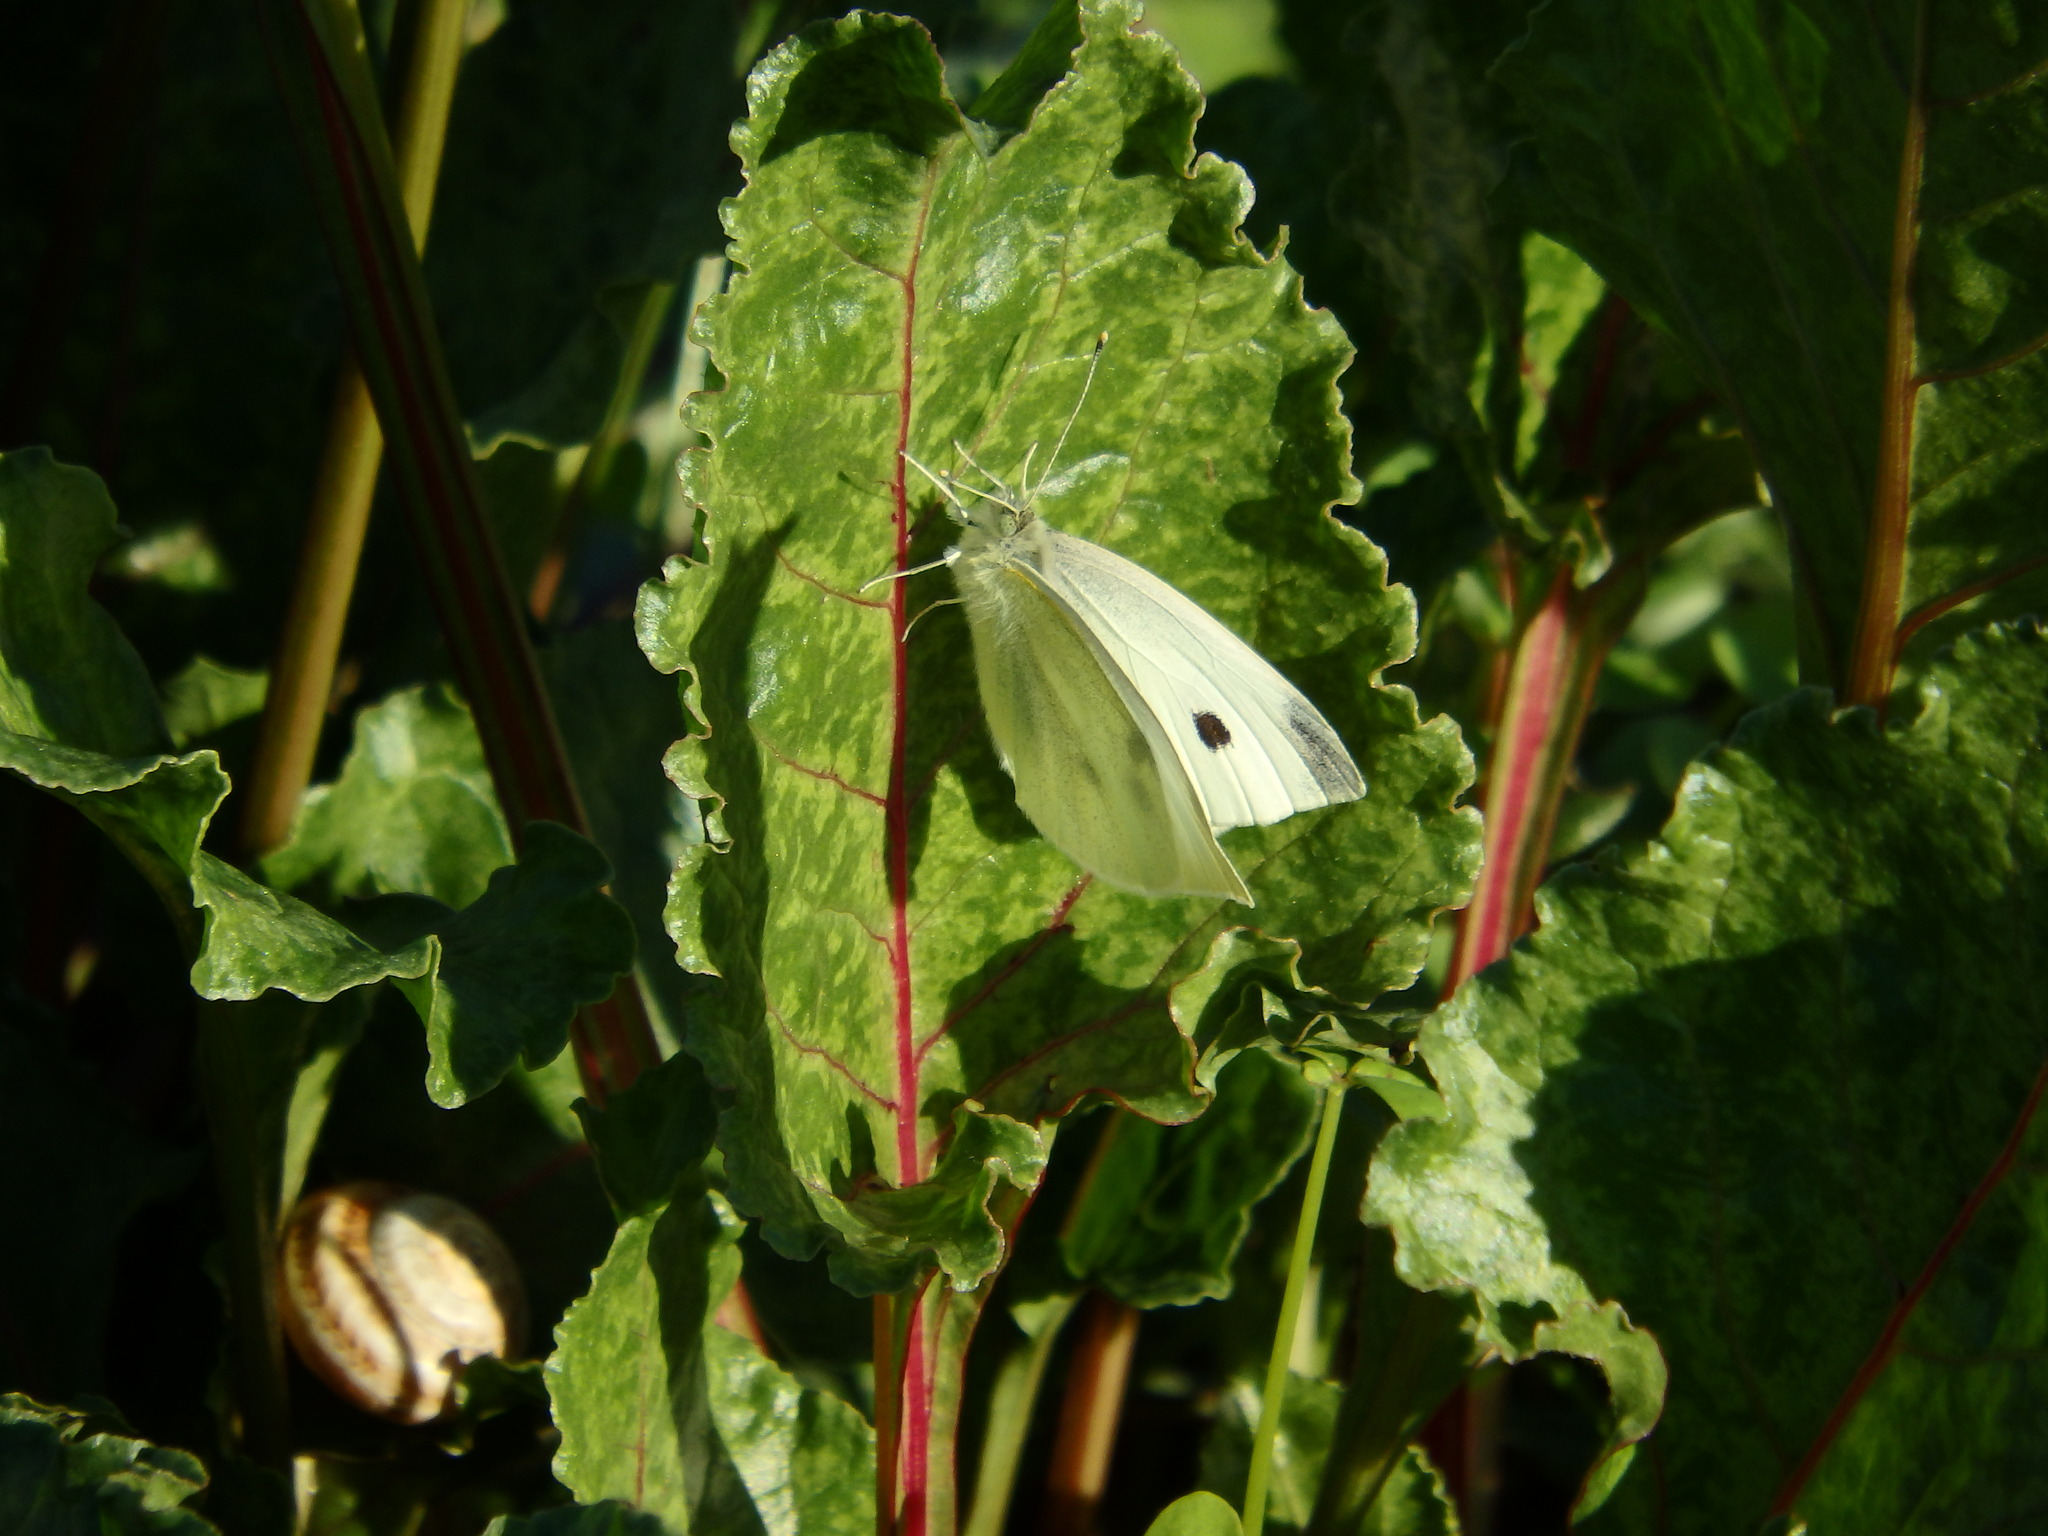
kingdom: Animalia
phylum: Arthropoda
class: Insecta
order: Lepidoptera
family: Pieridae
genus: Pieris
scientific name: Pieris rapae
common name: Small white
